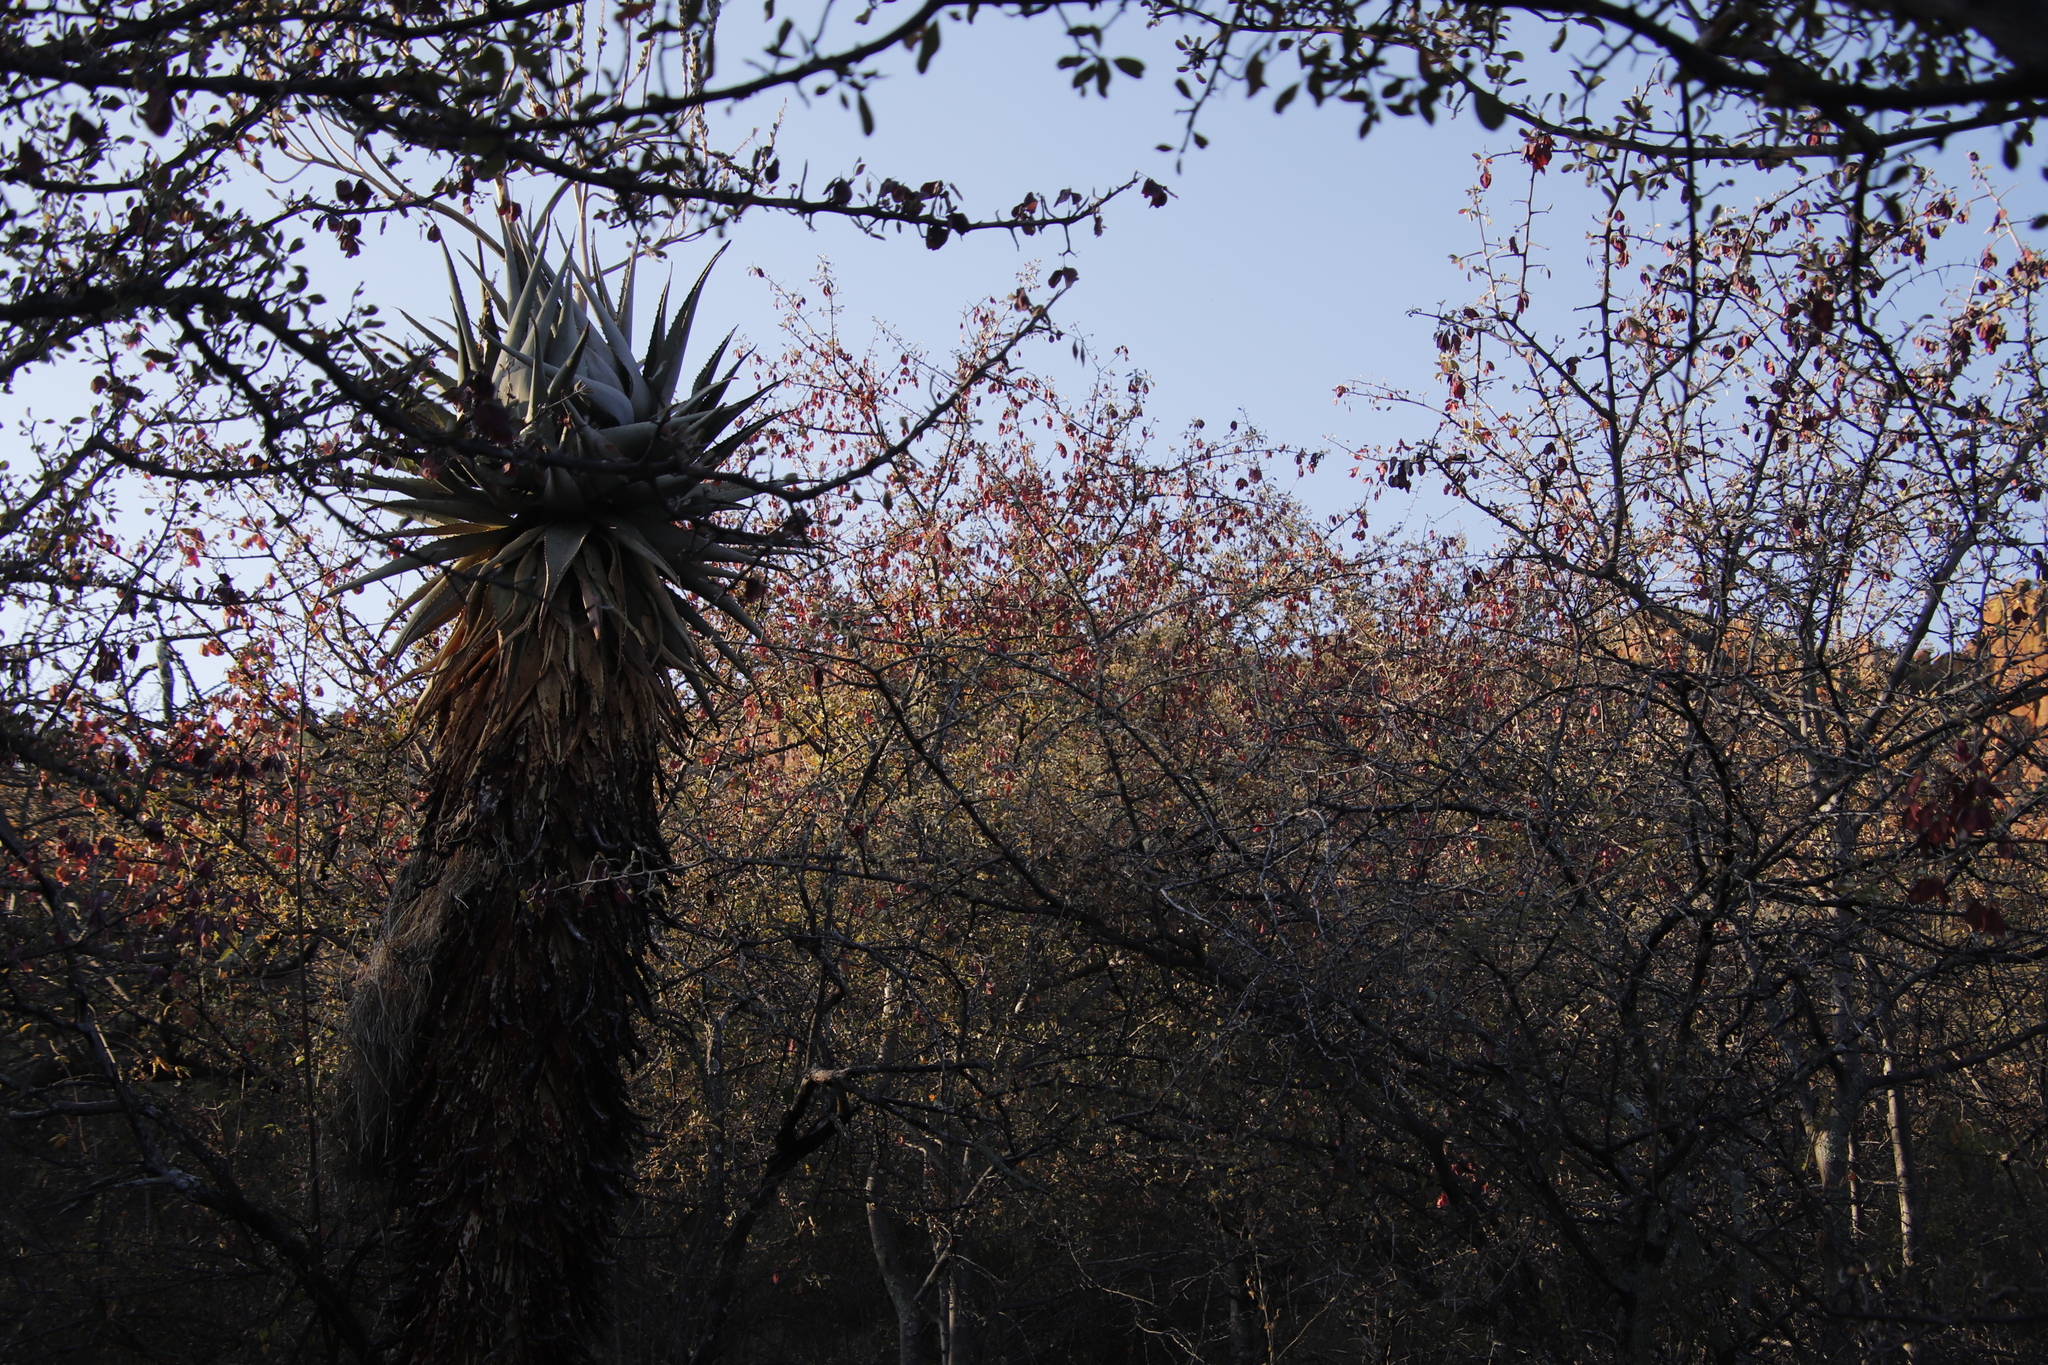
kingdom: Plantae
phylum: Tracheophyta
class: Liliopsida
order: Asparagales
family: Asphodelaceae
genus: Aloe
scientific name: Aloe littoralis
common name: Luanda tree aloe
